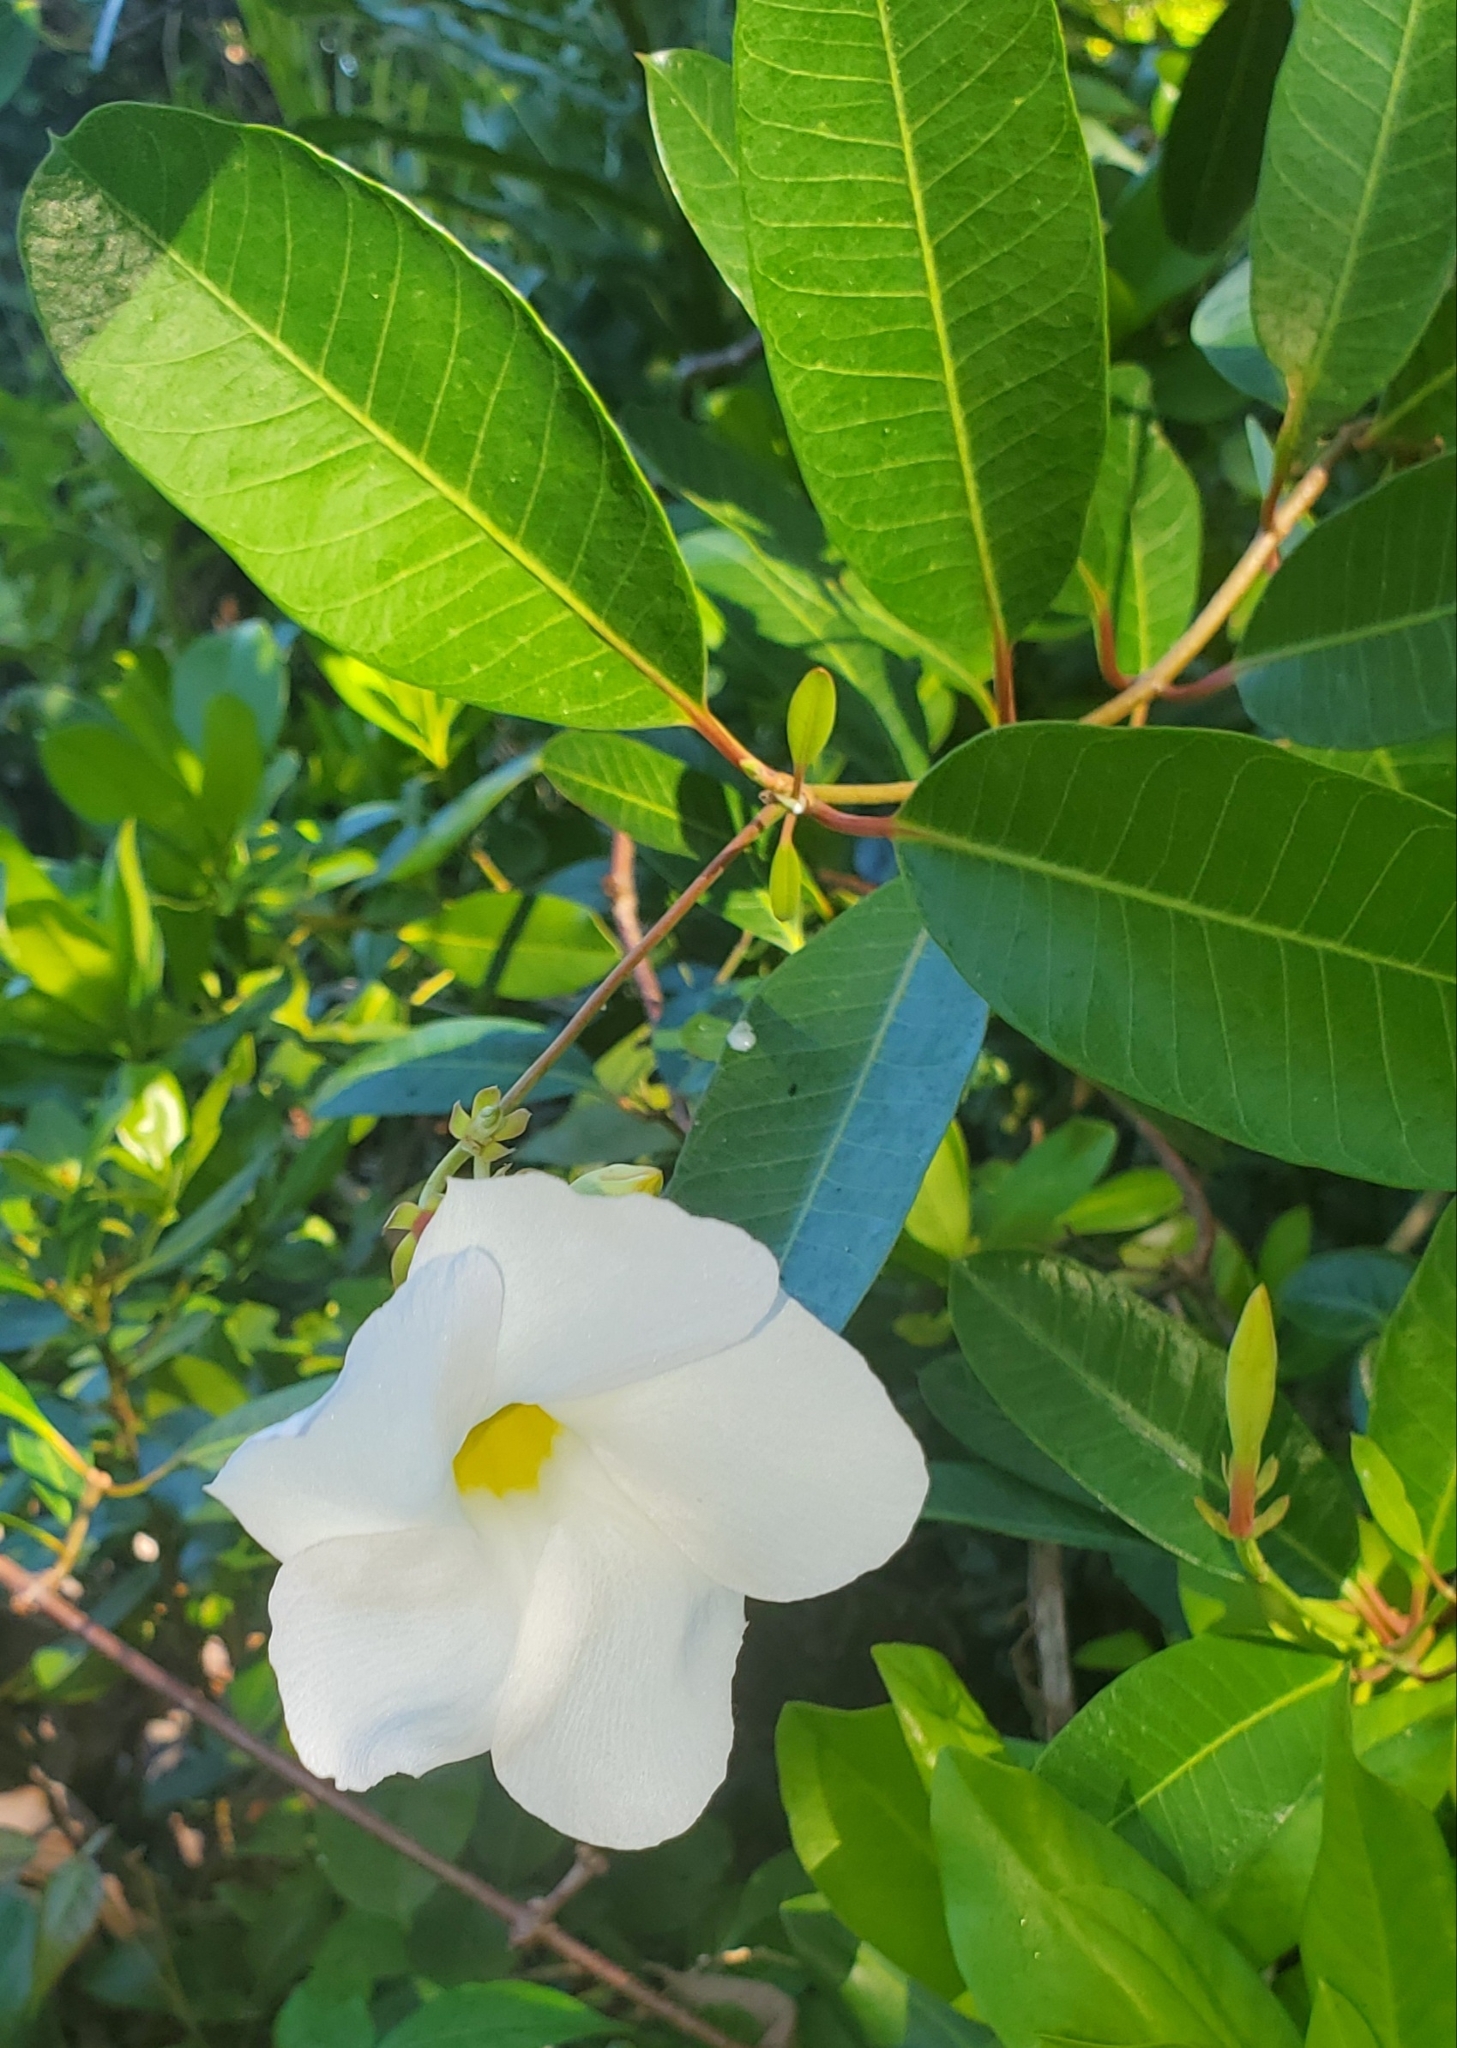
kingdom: Plantae
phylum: Tracheophyta
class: Magnoliopsida
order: Gentianales
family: Apocynaceae
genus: Rhabdadenia
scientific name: Rhabdadenia biflora
